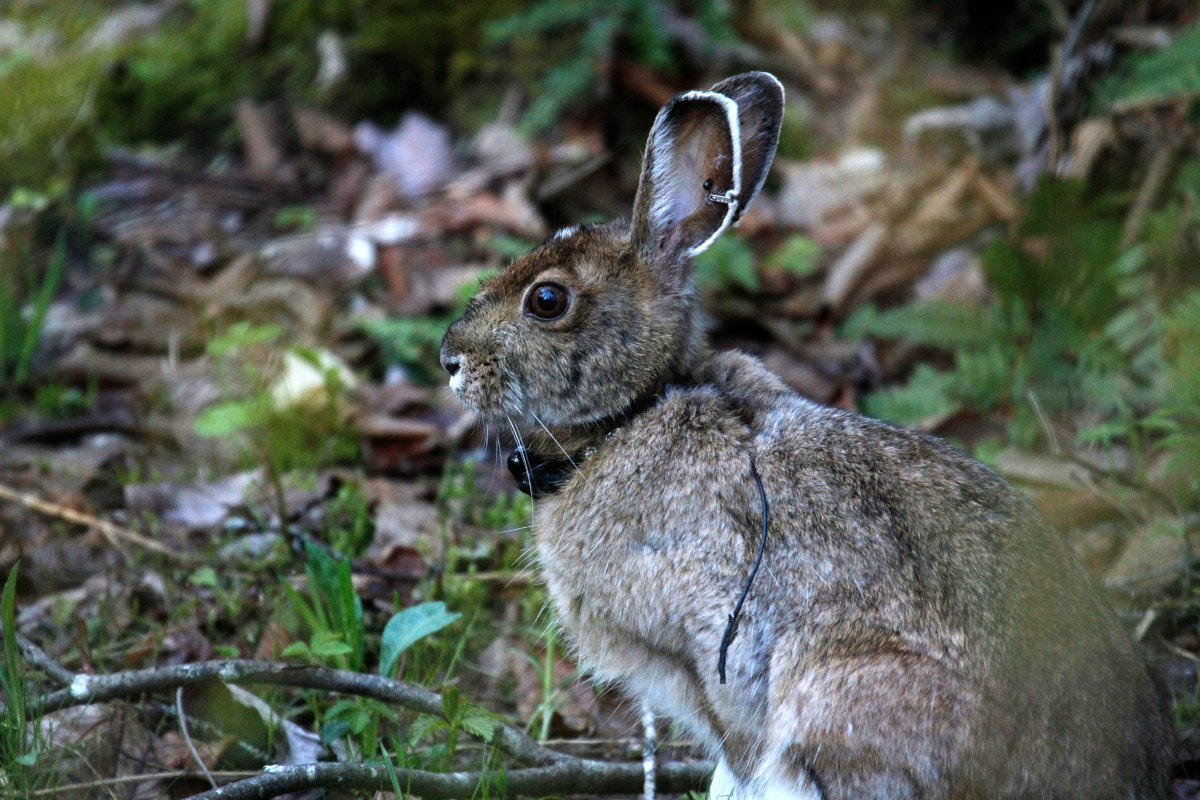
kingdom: Animalia
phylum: Chordata
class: Mammalia
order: Lagomorpha
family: Leporidae
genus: Lepus
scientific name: Lepus americanus
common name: Snowshoe hare
